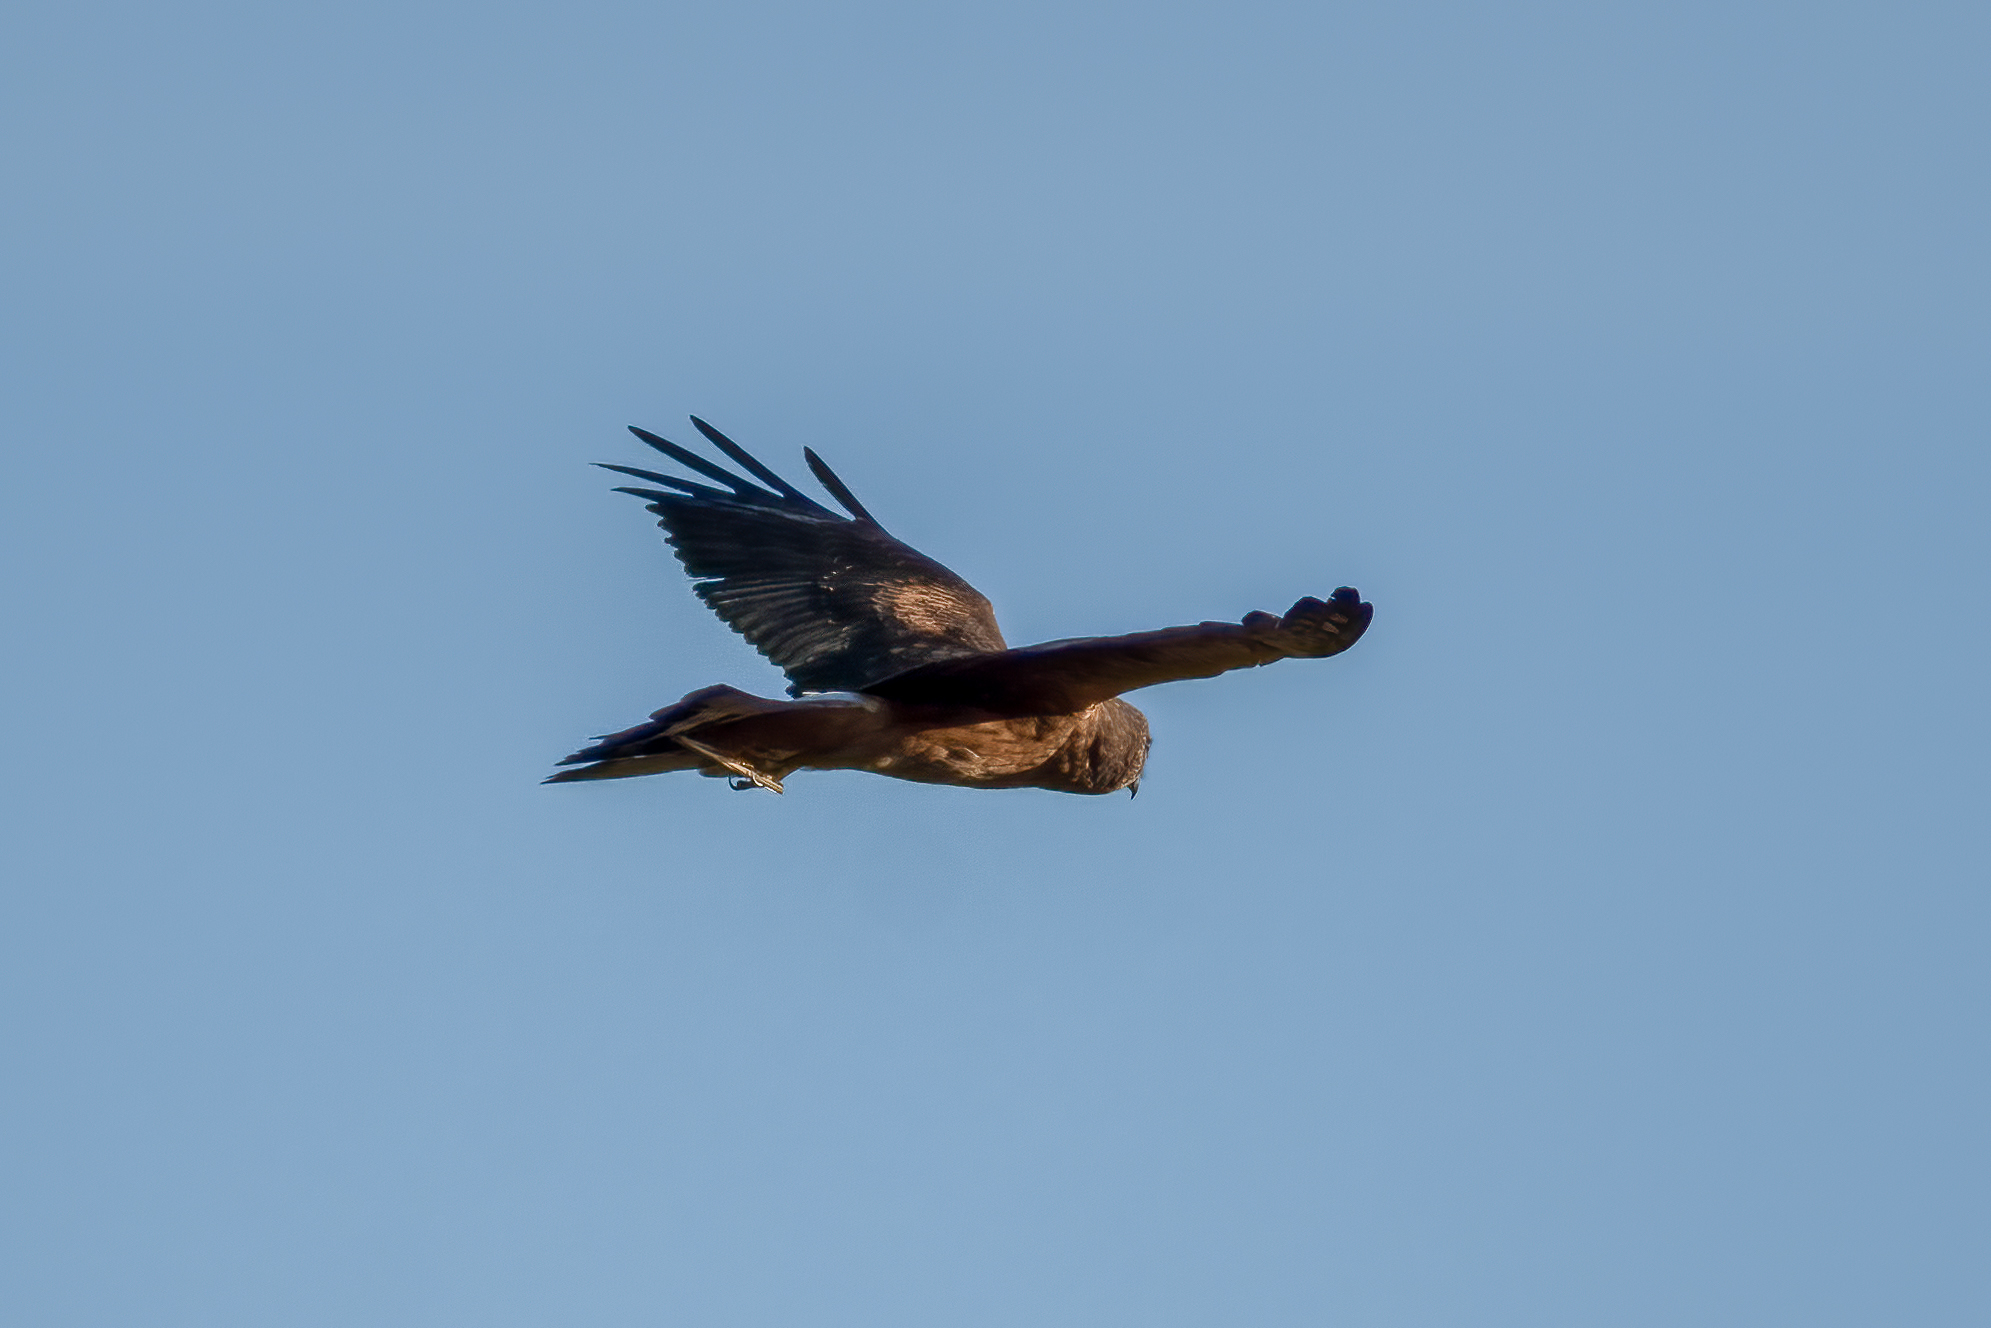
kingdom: Animalia
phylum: Chordata
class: Aves
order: Accipitriformes
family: Accipitridae
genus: Circus
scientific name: Circus cyaneus
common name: Hen harrier
